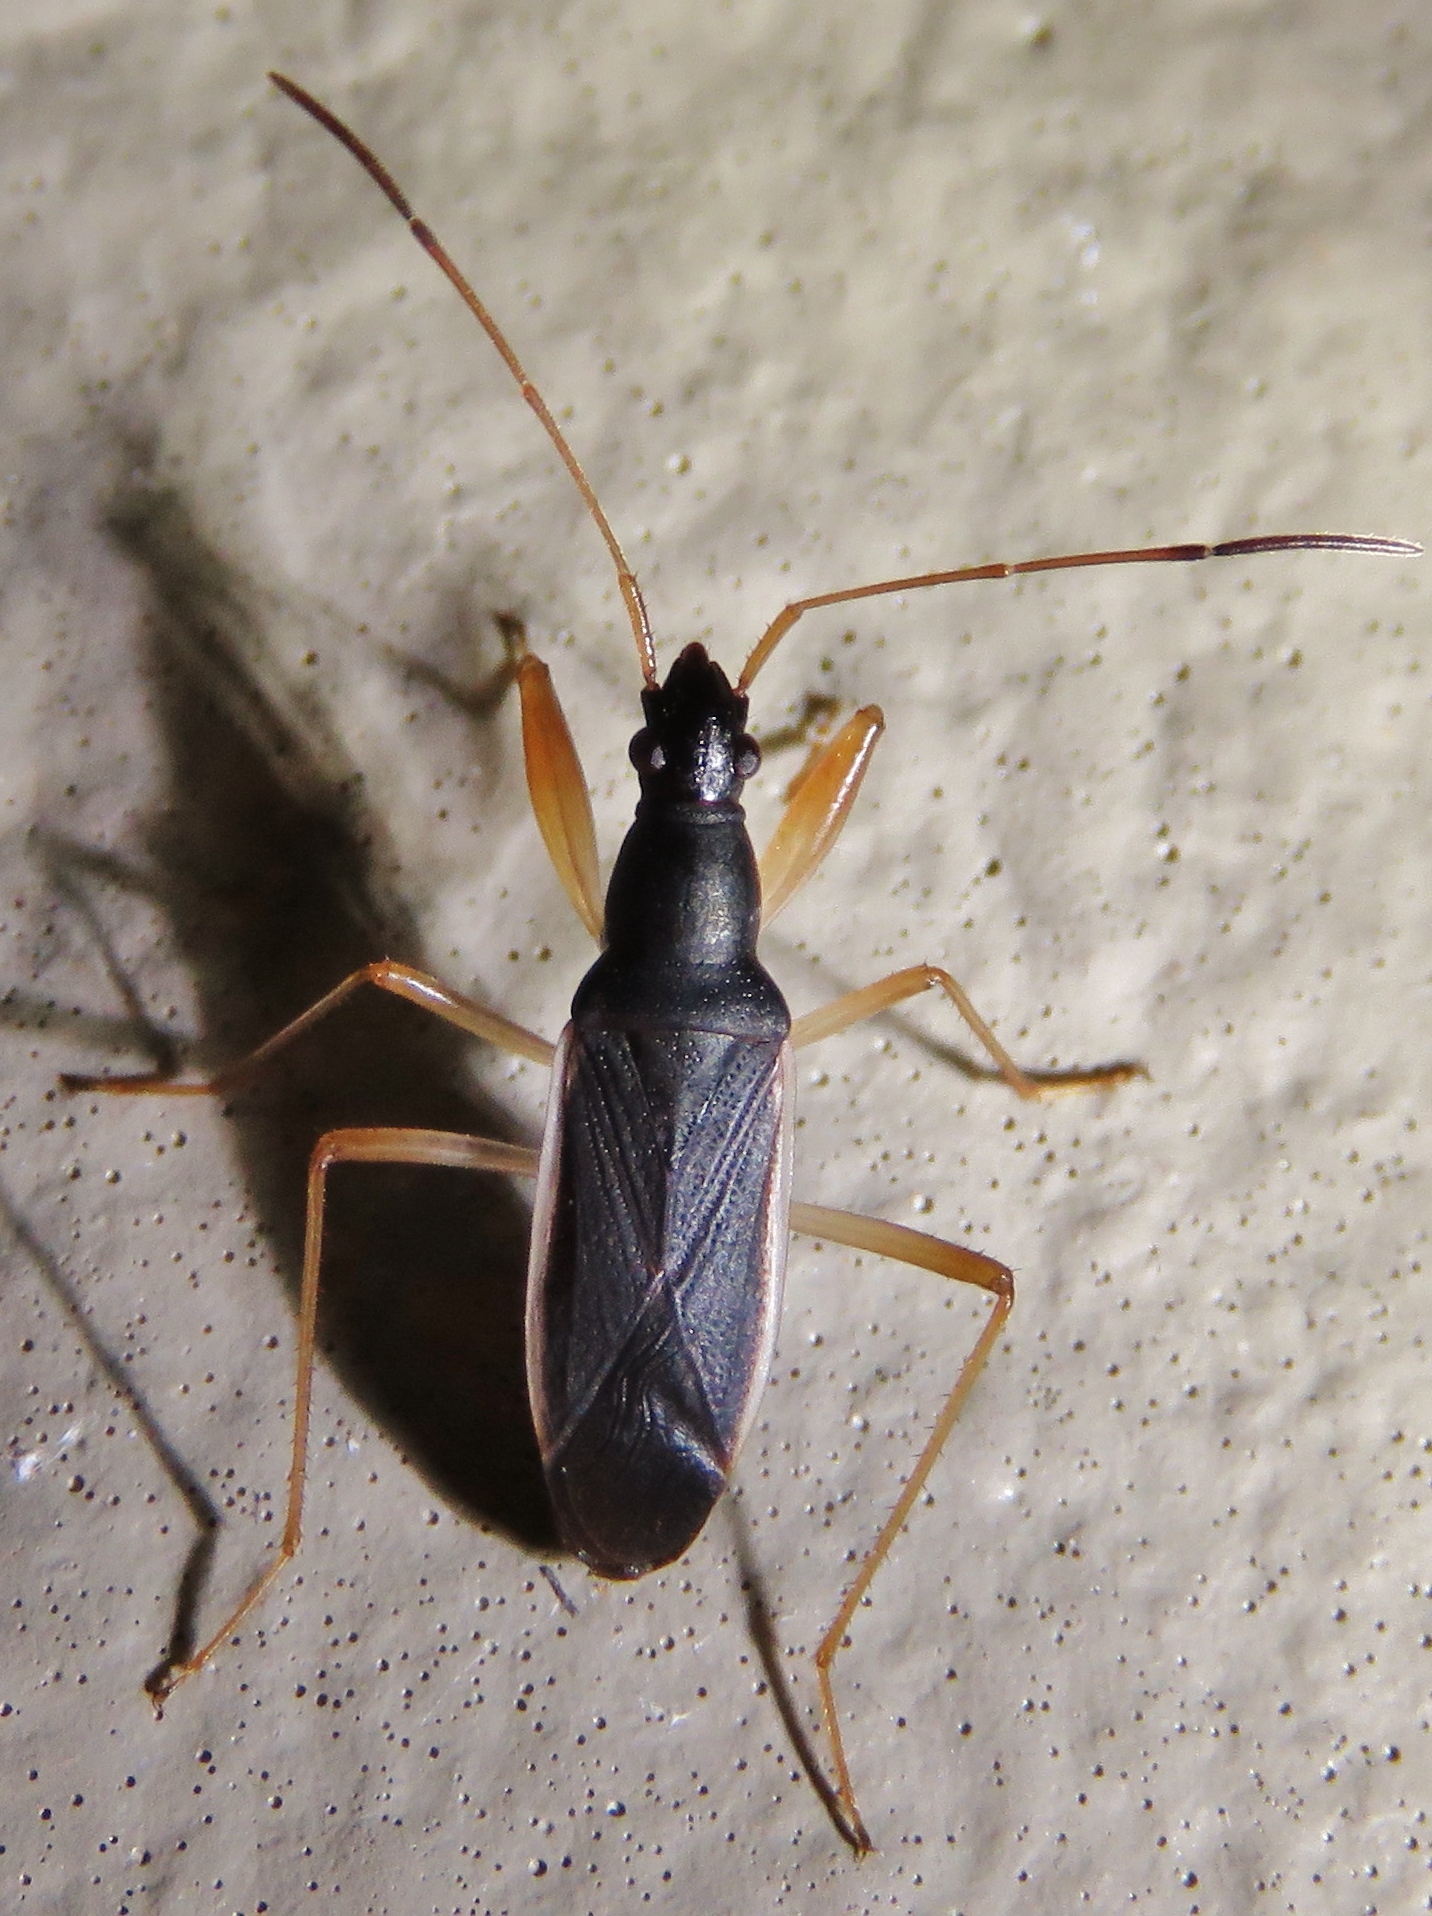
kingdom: Animalia
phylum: Arthropoda
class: Insecta
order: Hemiptera
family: Rhyparochromidae
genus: Cnemodus
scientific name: Cnemodus mavortius
